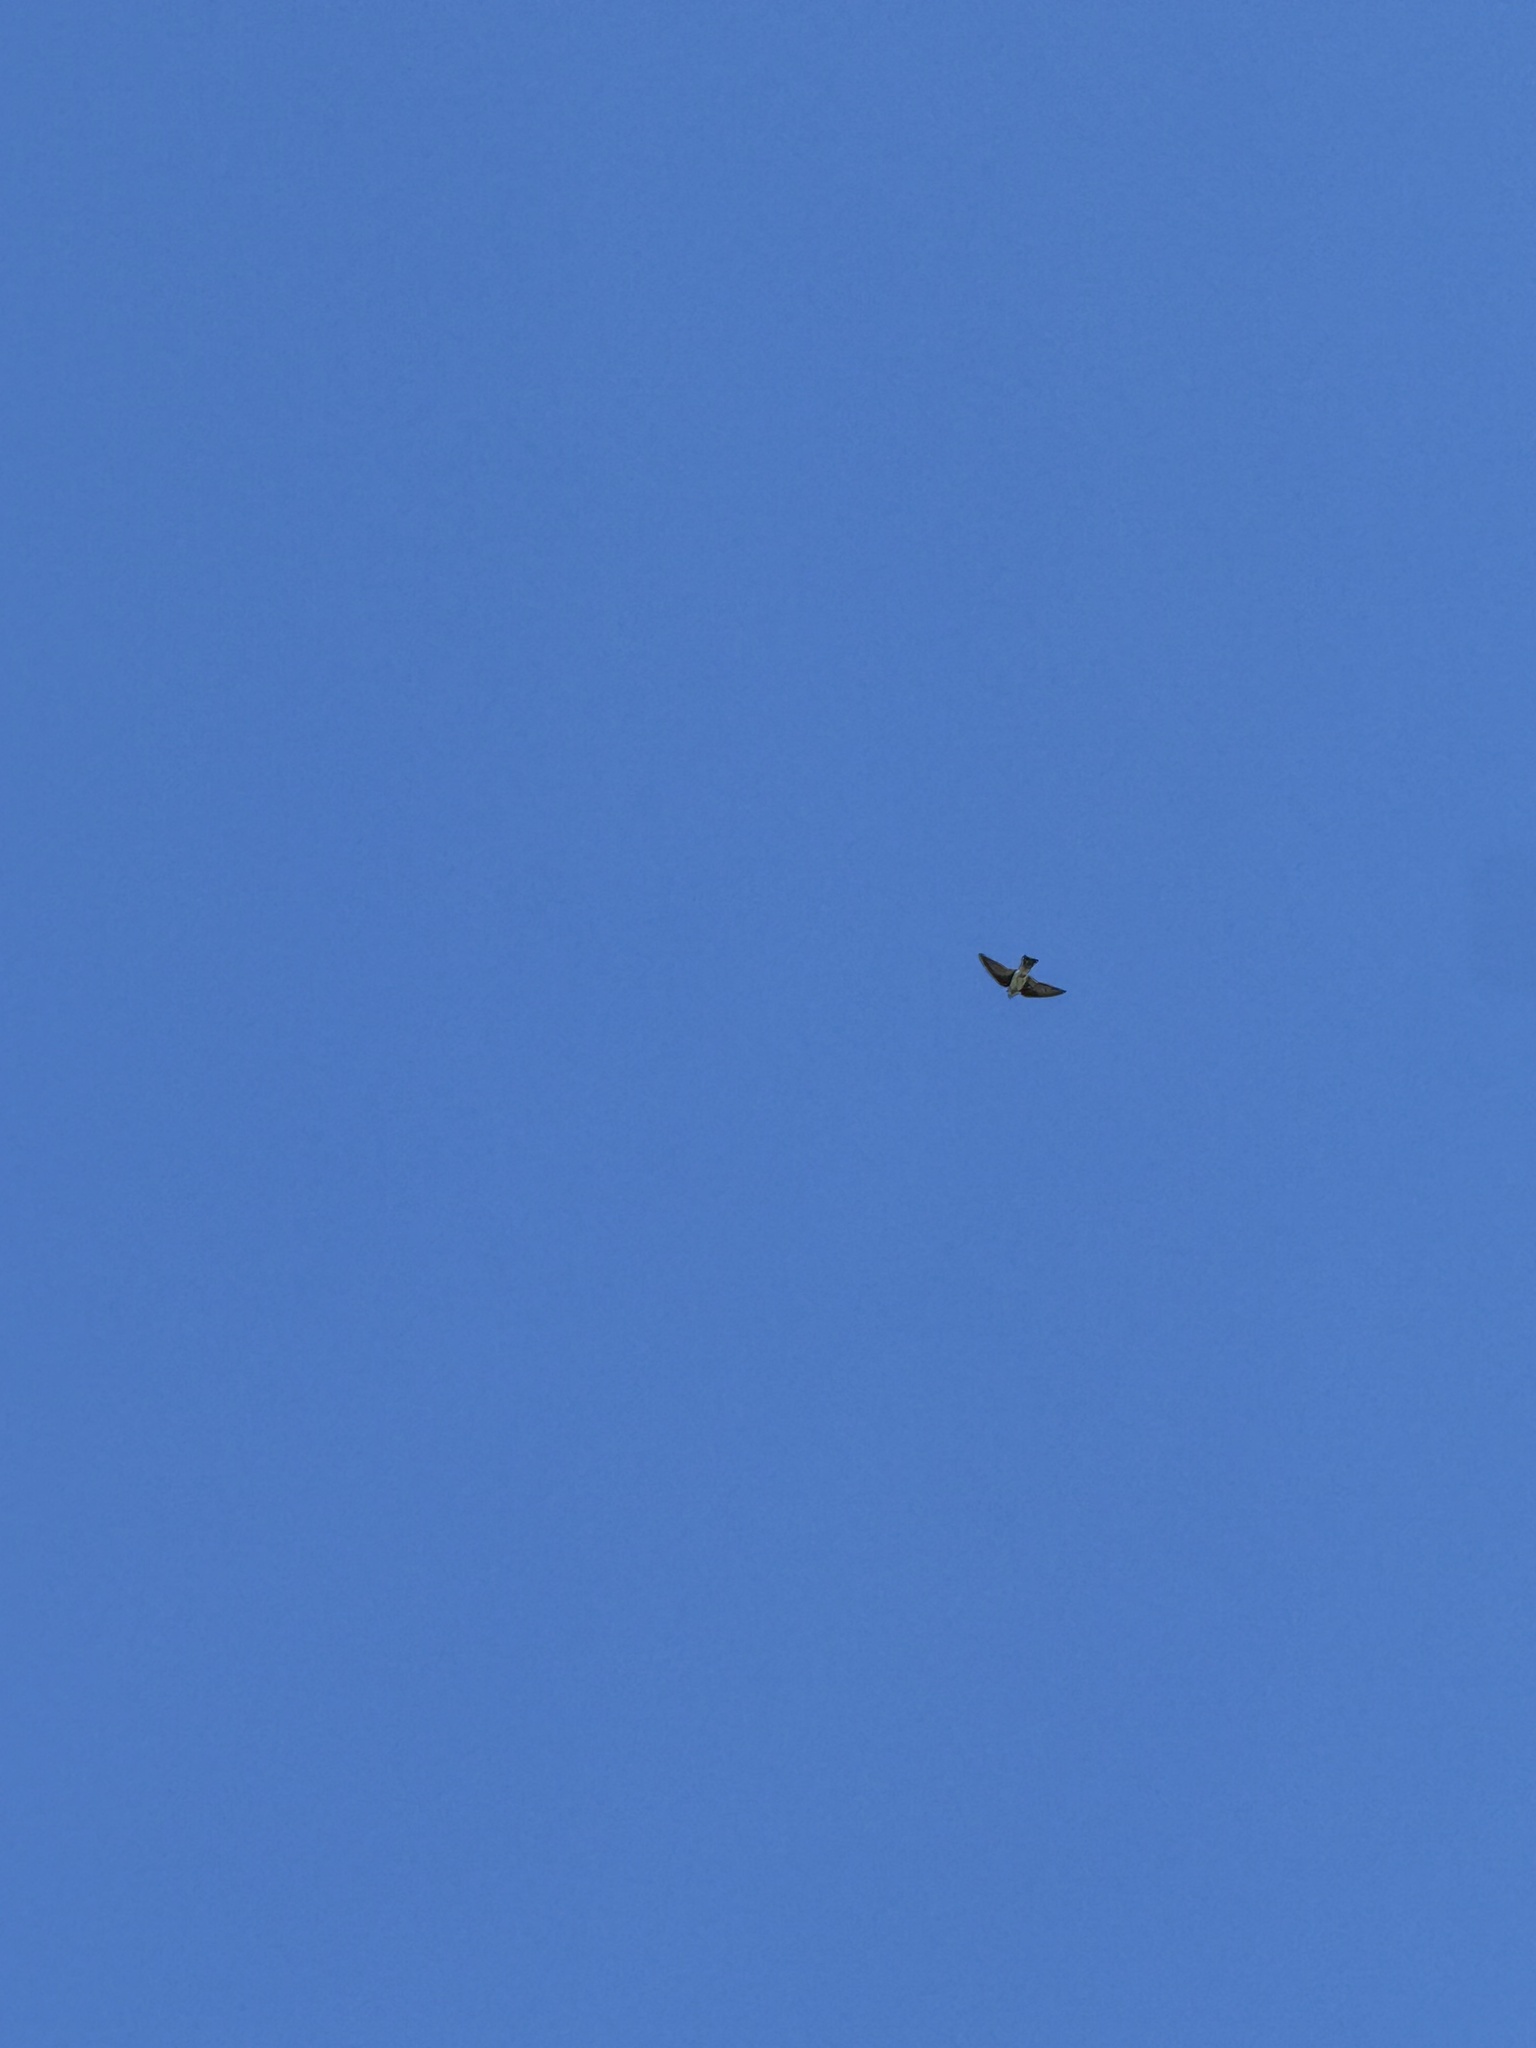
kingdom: Animalia
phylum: Chordata
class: Aves
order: Passeriformes
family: Hirundinidae
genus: Tachycineta
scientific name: Tachycineta bicolor
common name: Tree swallow
